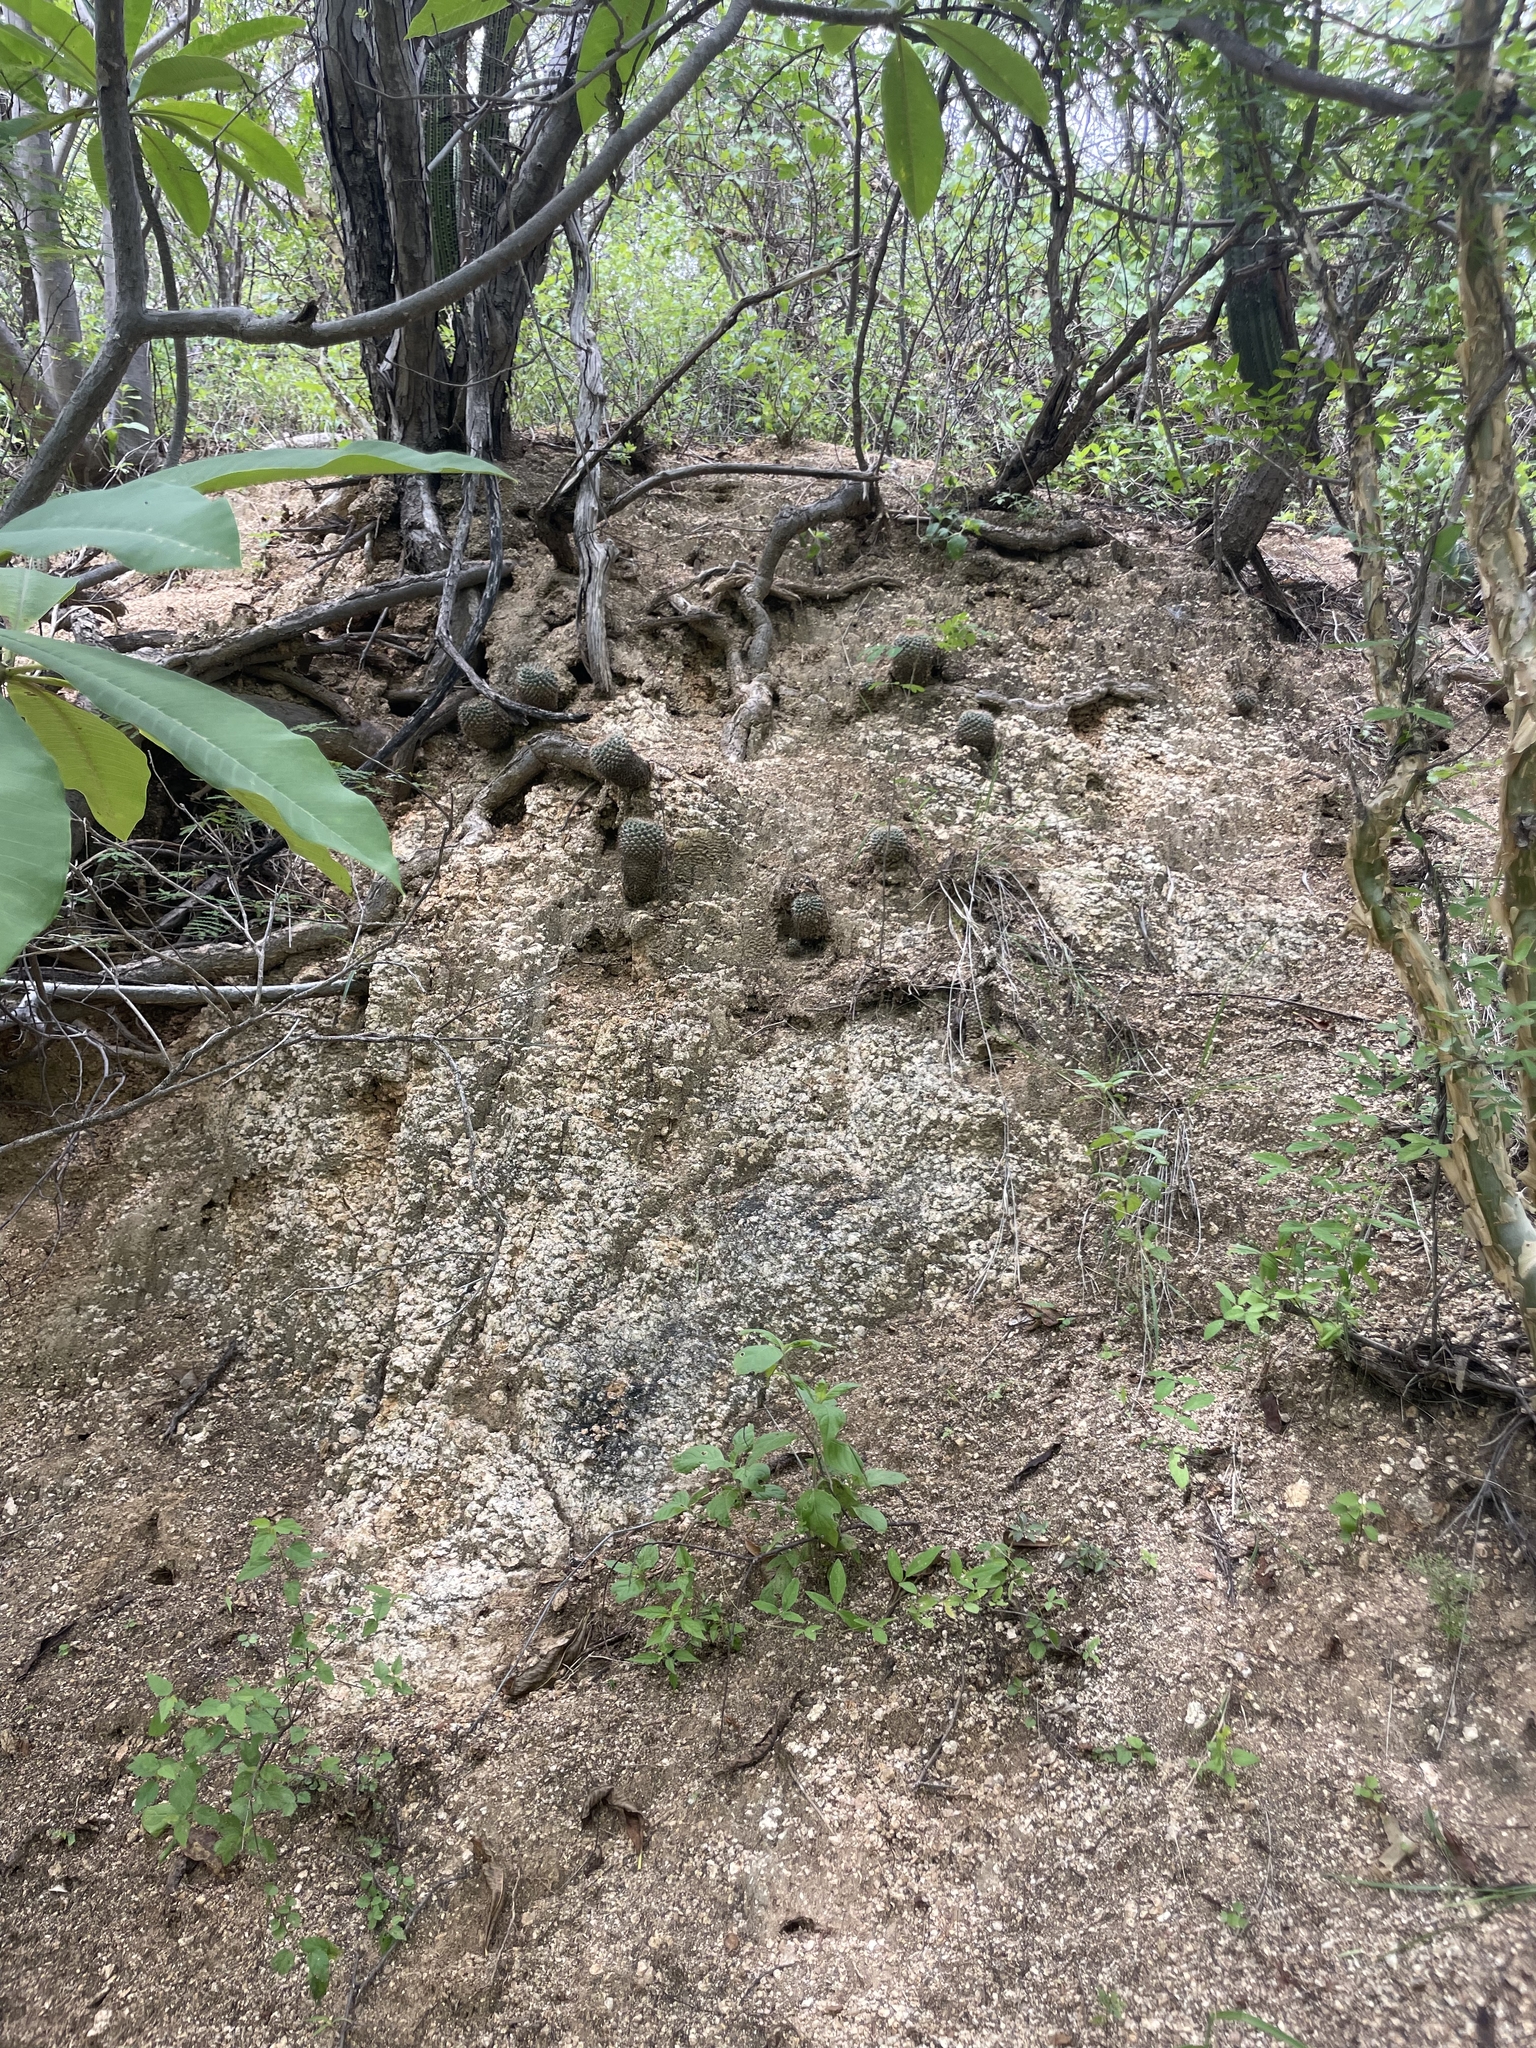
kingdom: Plantae
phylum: Tracheophyta
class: Magnoliopsida
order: Caryophyllales
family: Cactaceae
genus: Mammillaria
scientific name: Mammillaria petrophila
